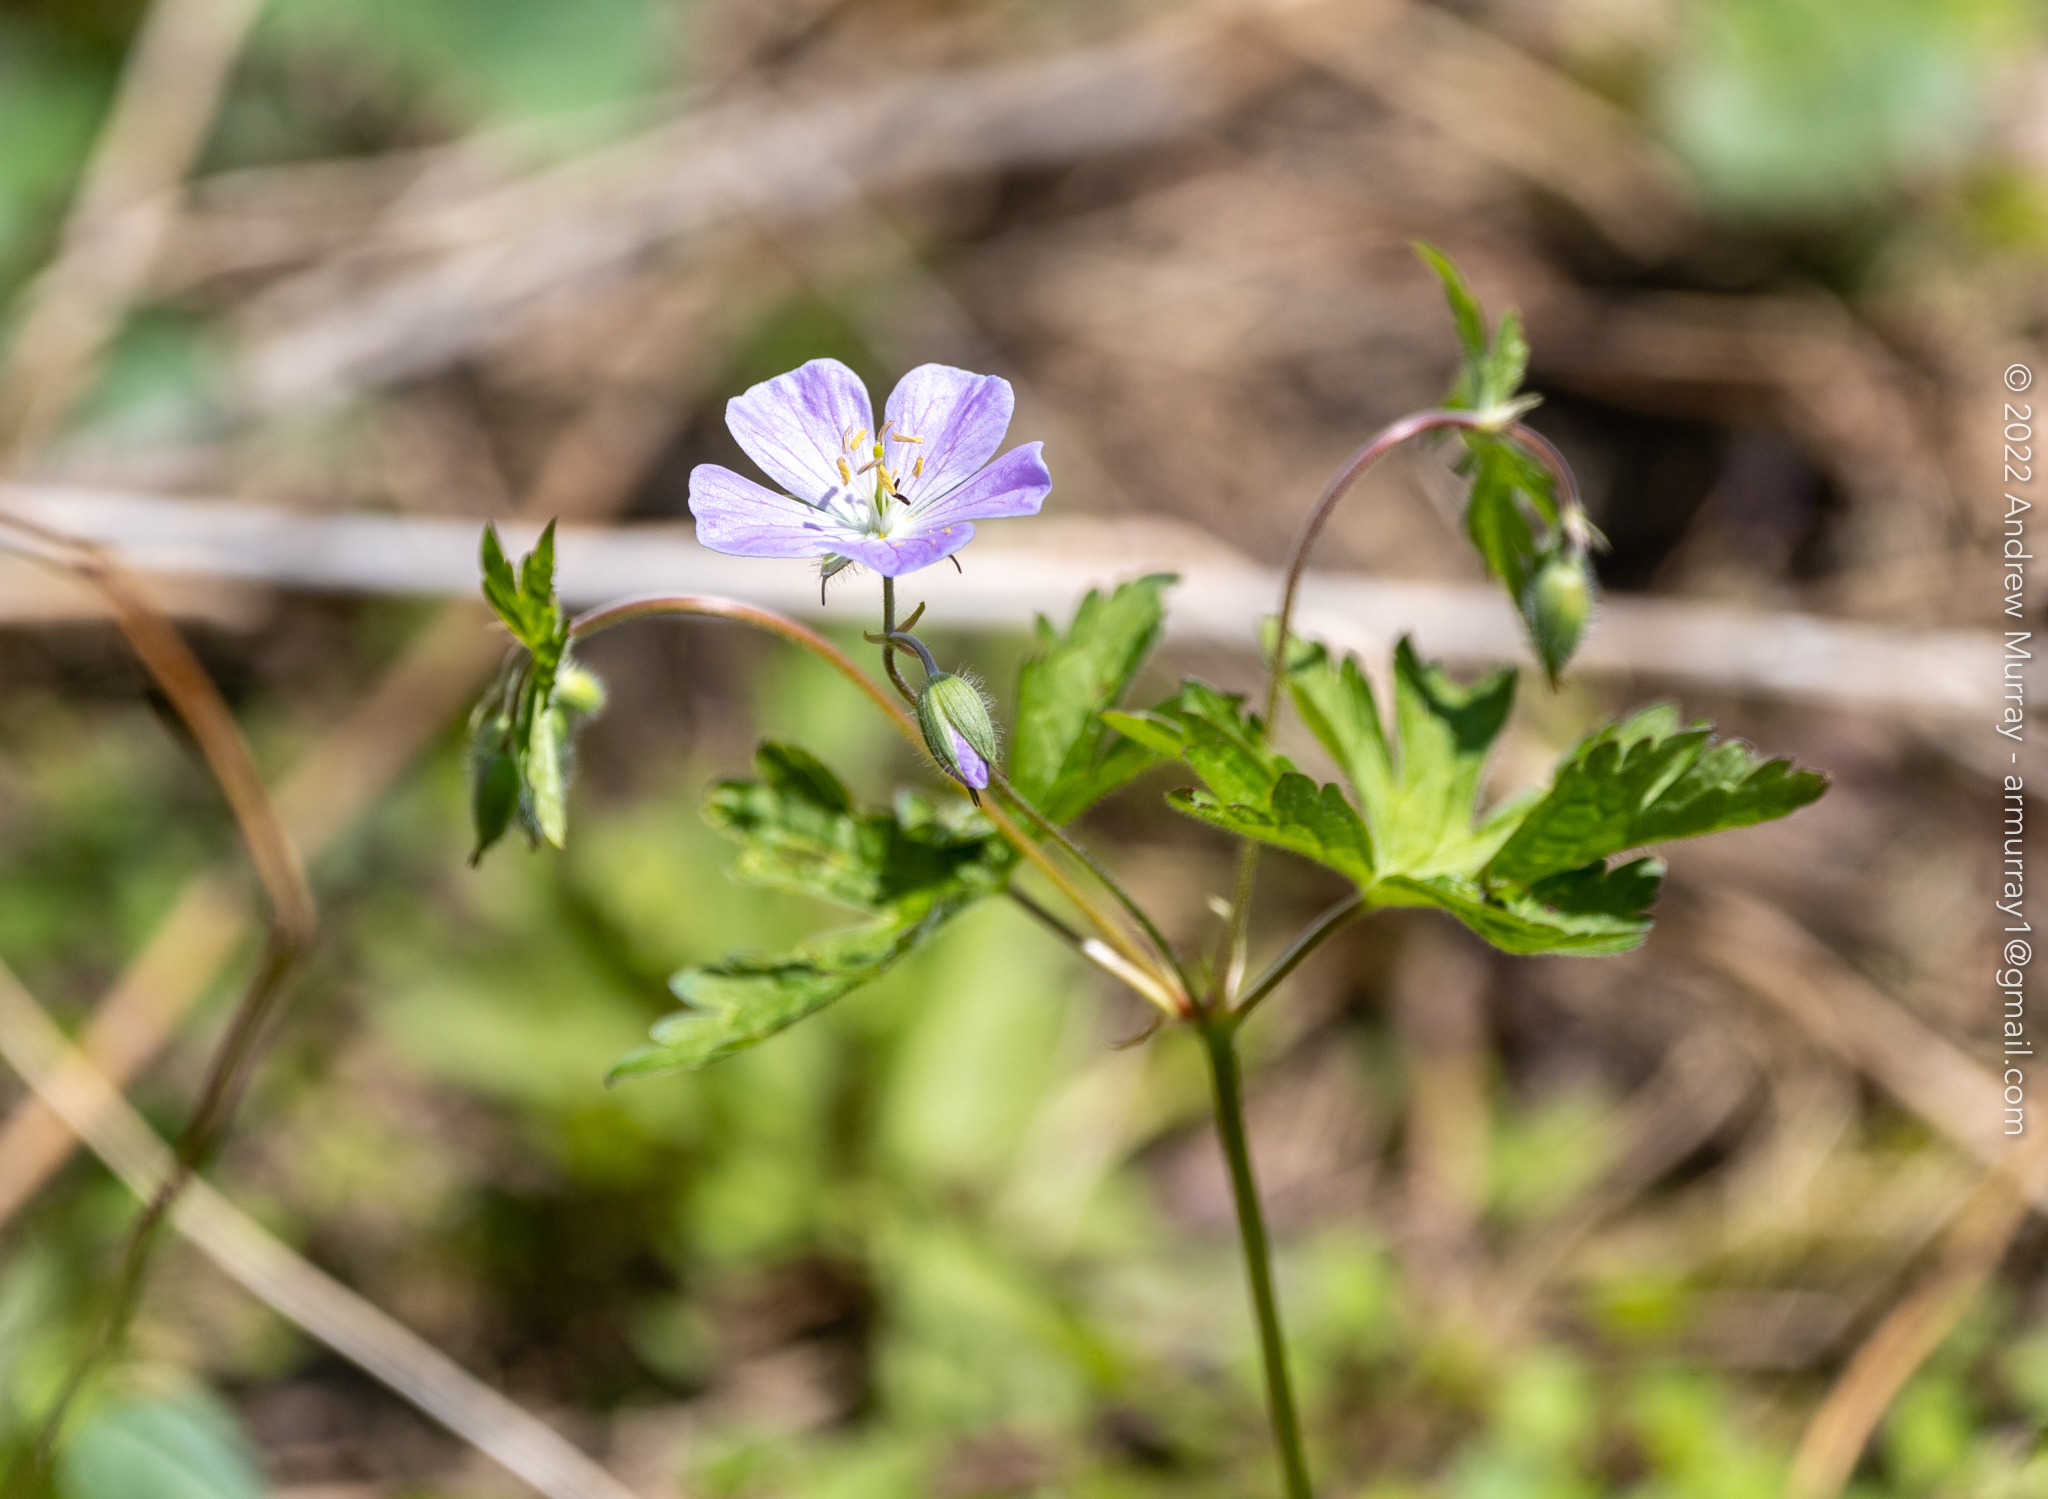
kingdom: Plantae
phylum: Tracheophyta
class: Magnoliopsida
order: Geraniales
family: Geraniaceae
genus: Geranium
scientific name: Geranium maculatum
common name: Spotted geranium
